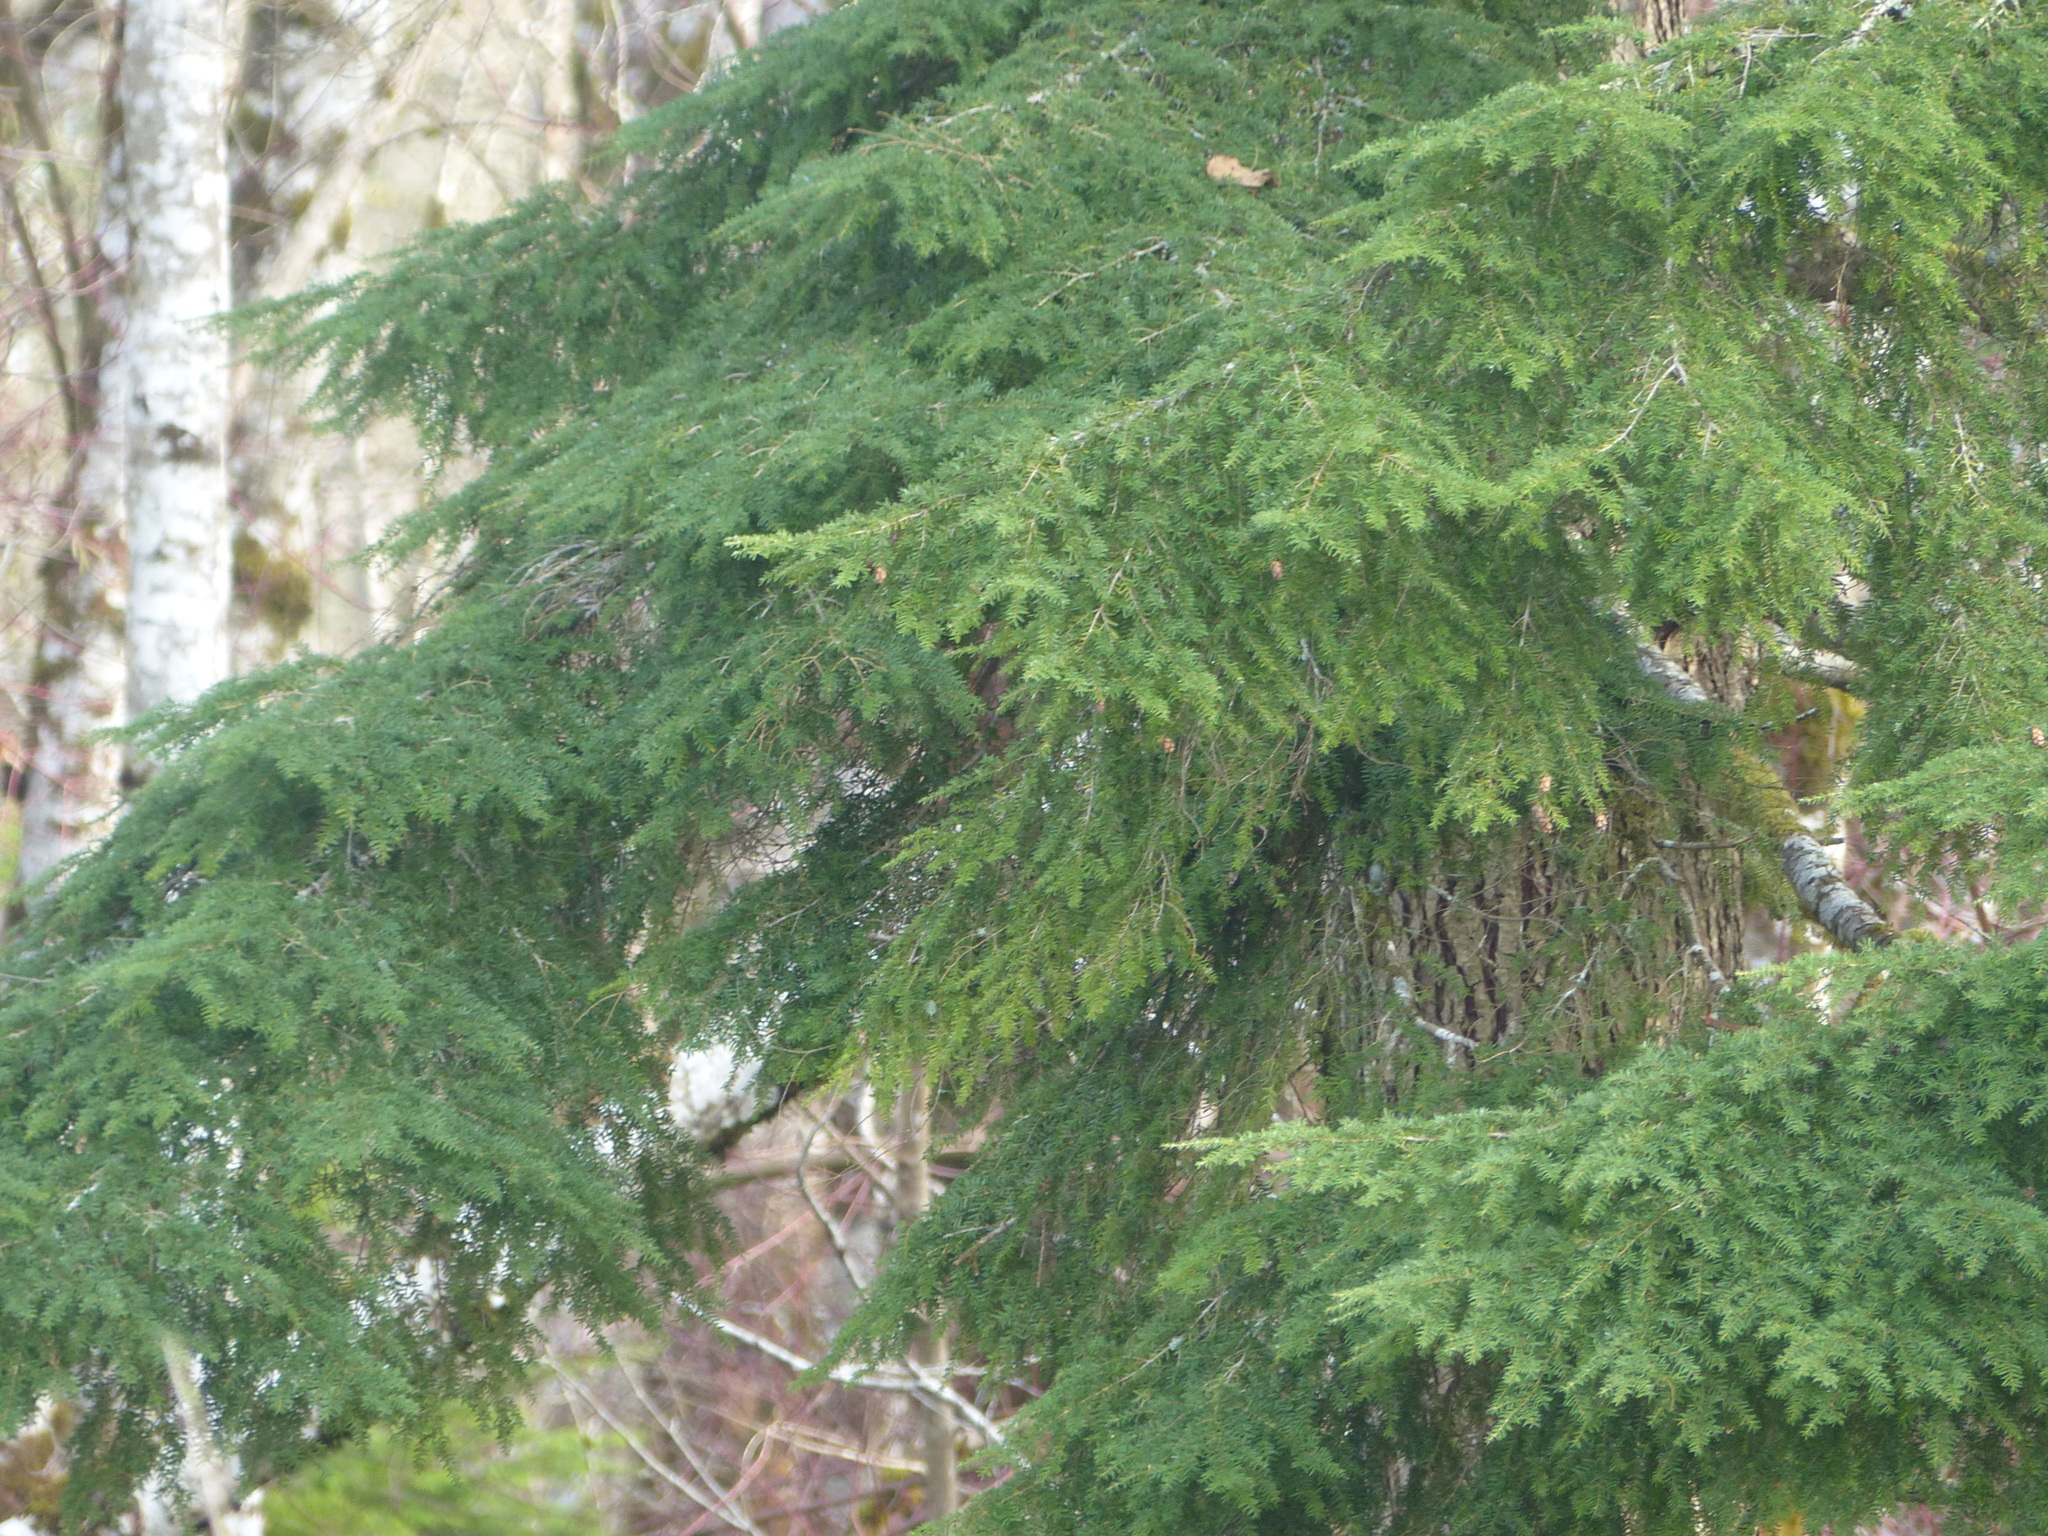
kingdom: Plantae
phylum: Tracheophyta
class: Pinopsida
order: Pinales
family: Pinaceae
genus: Tsuga
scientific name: Tsuga heterophylla
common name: Western hemlock
